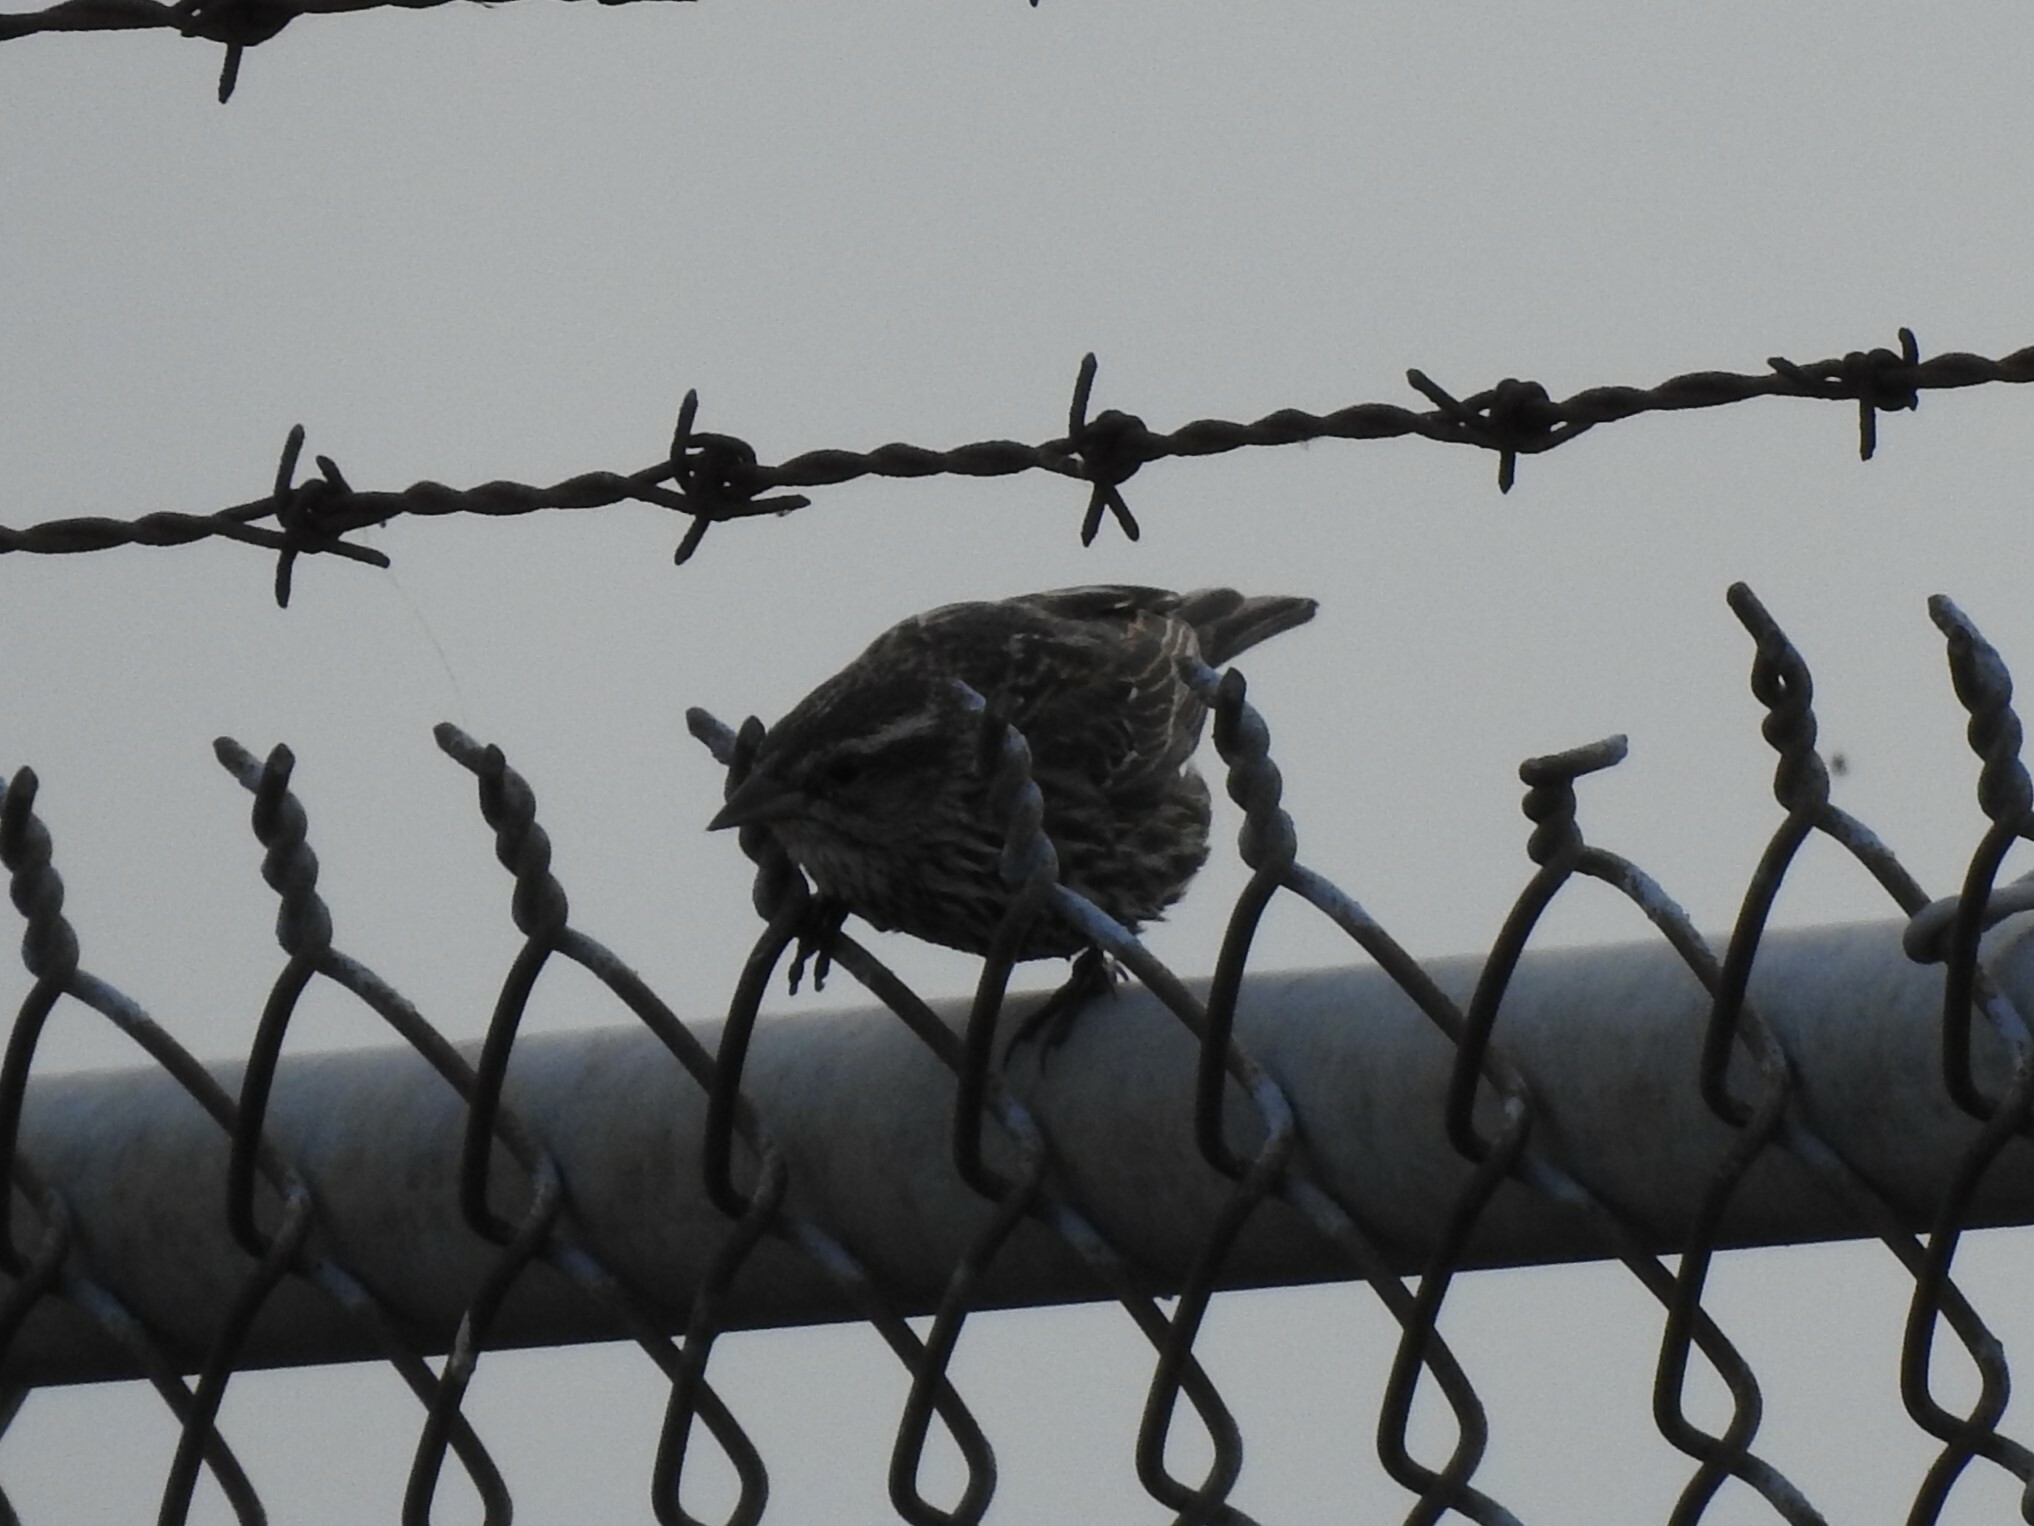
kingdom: Animalia
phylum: Chordata
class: Aves
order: Passeriformes
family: Icteridae
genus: Agelaius
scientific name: Agelaius phoeniceus
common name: Red-winged blackbird
